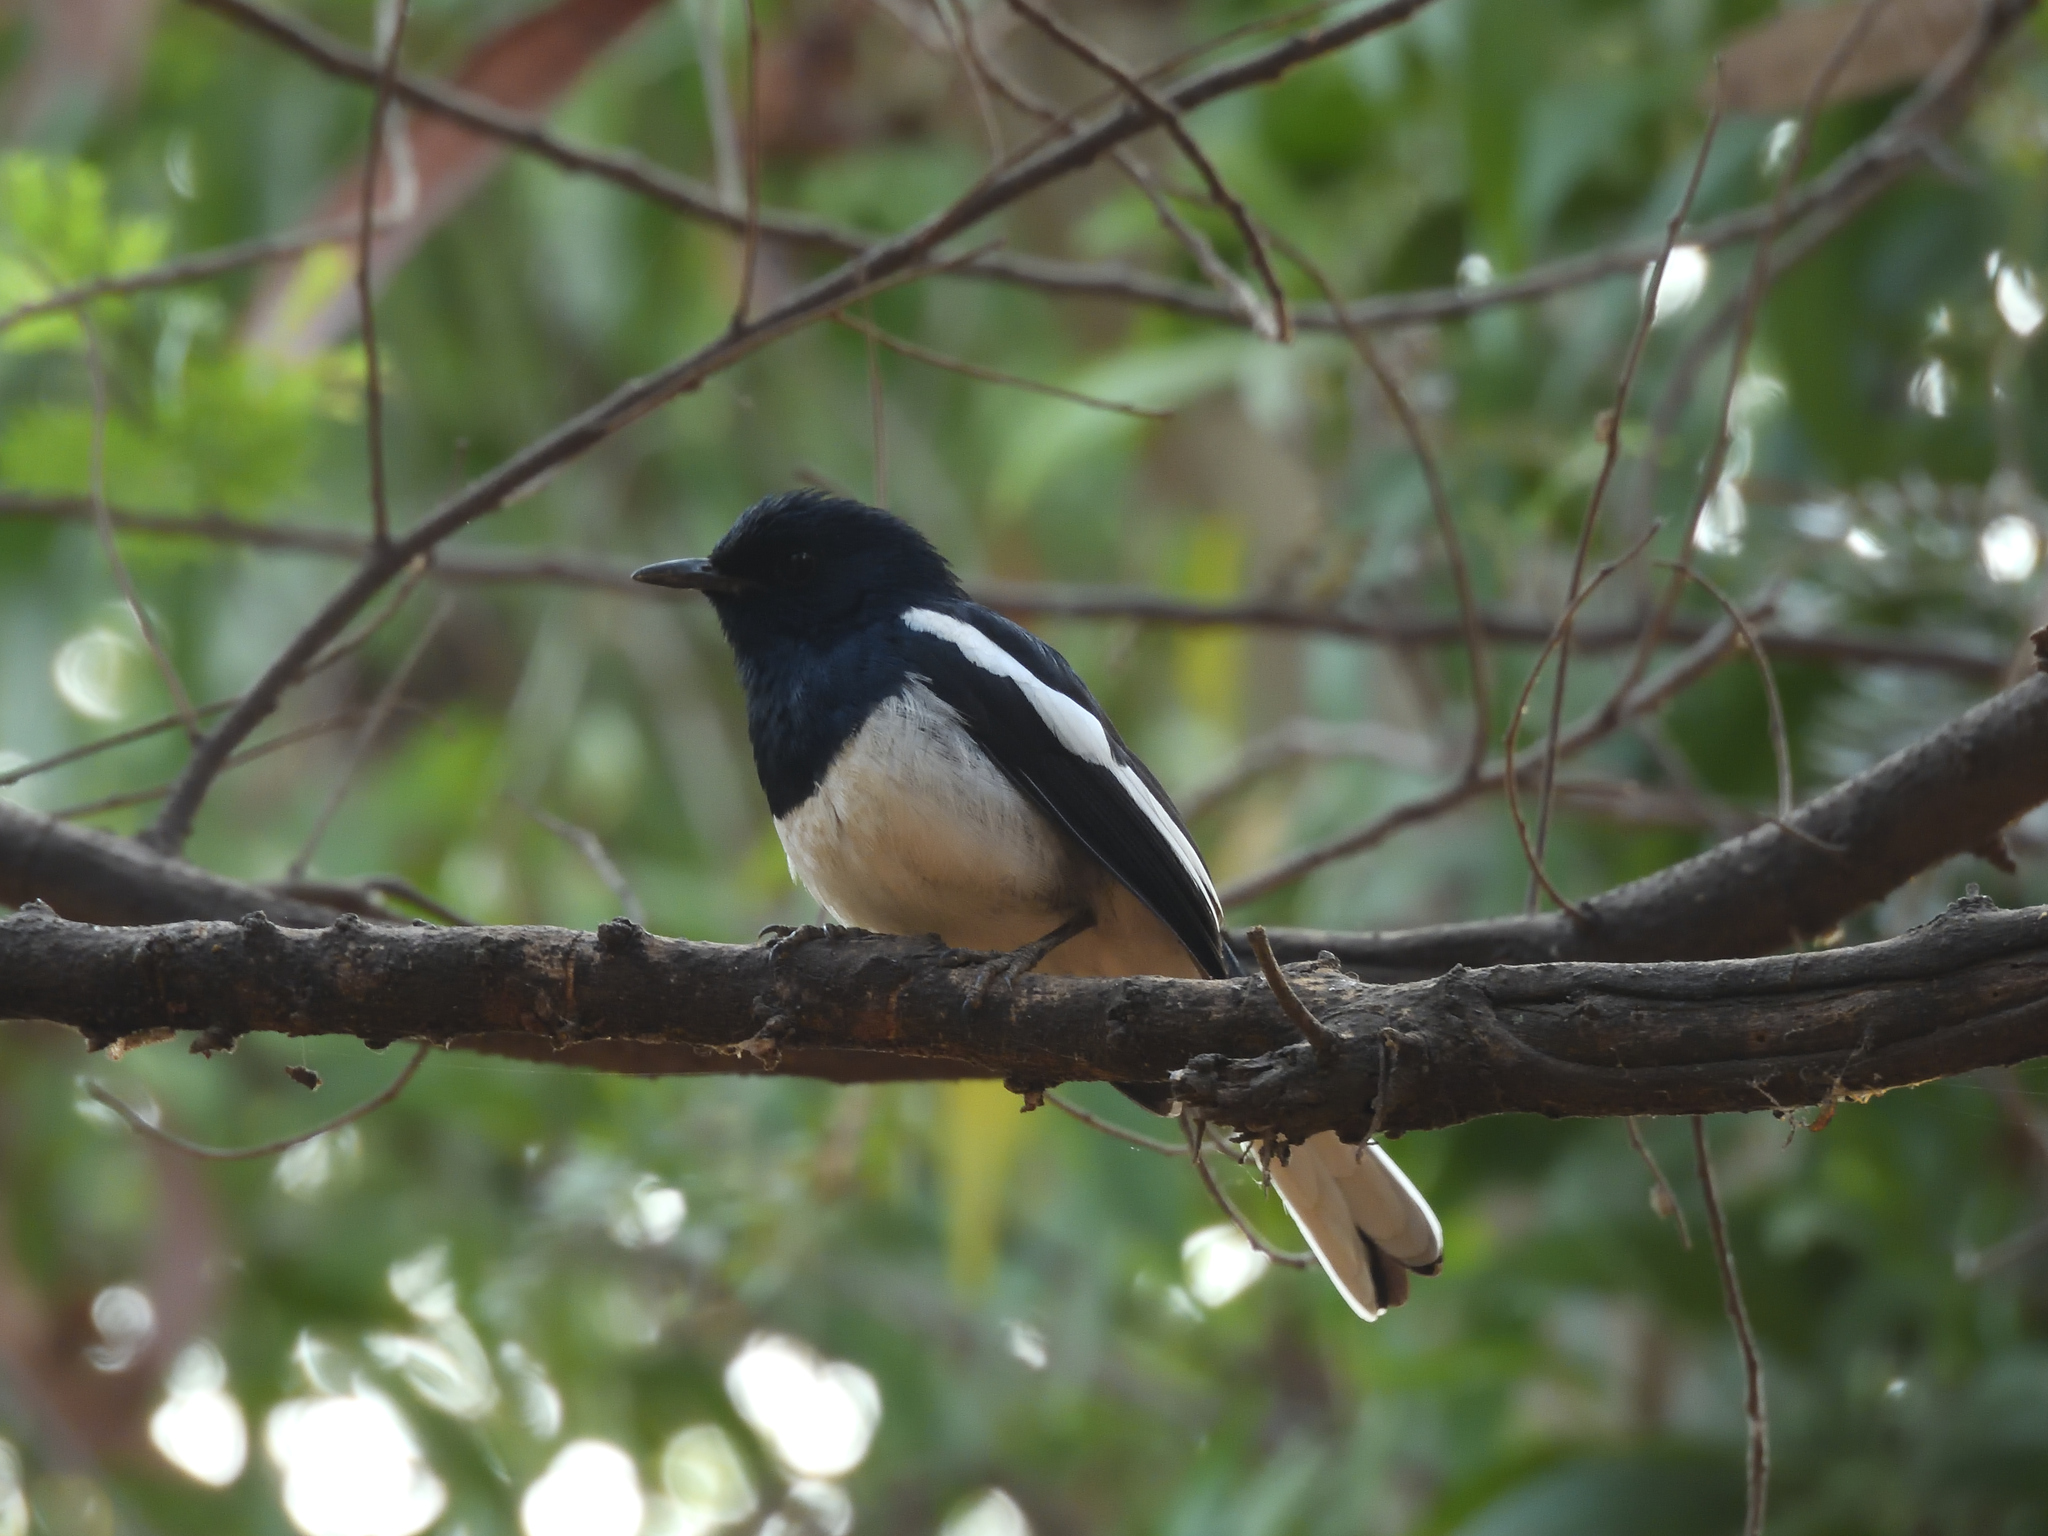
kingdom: Animalia
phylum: Chordata
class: Aves
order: Passeriformes
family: Muscicapidae
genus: Copsychus
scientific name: Copsychus saularis
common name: Oriental magpie-robin
